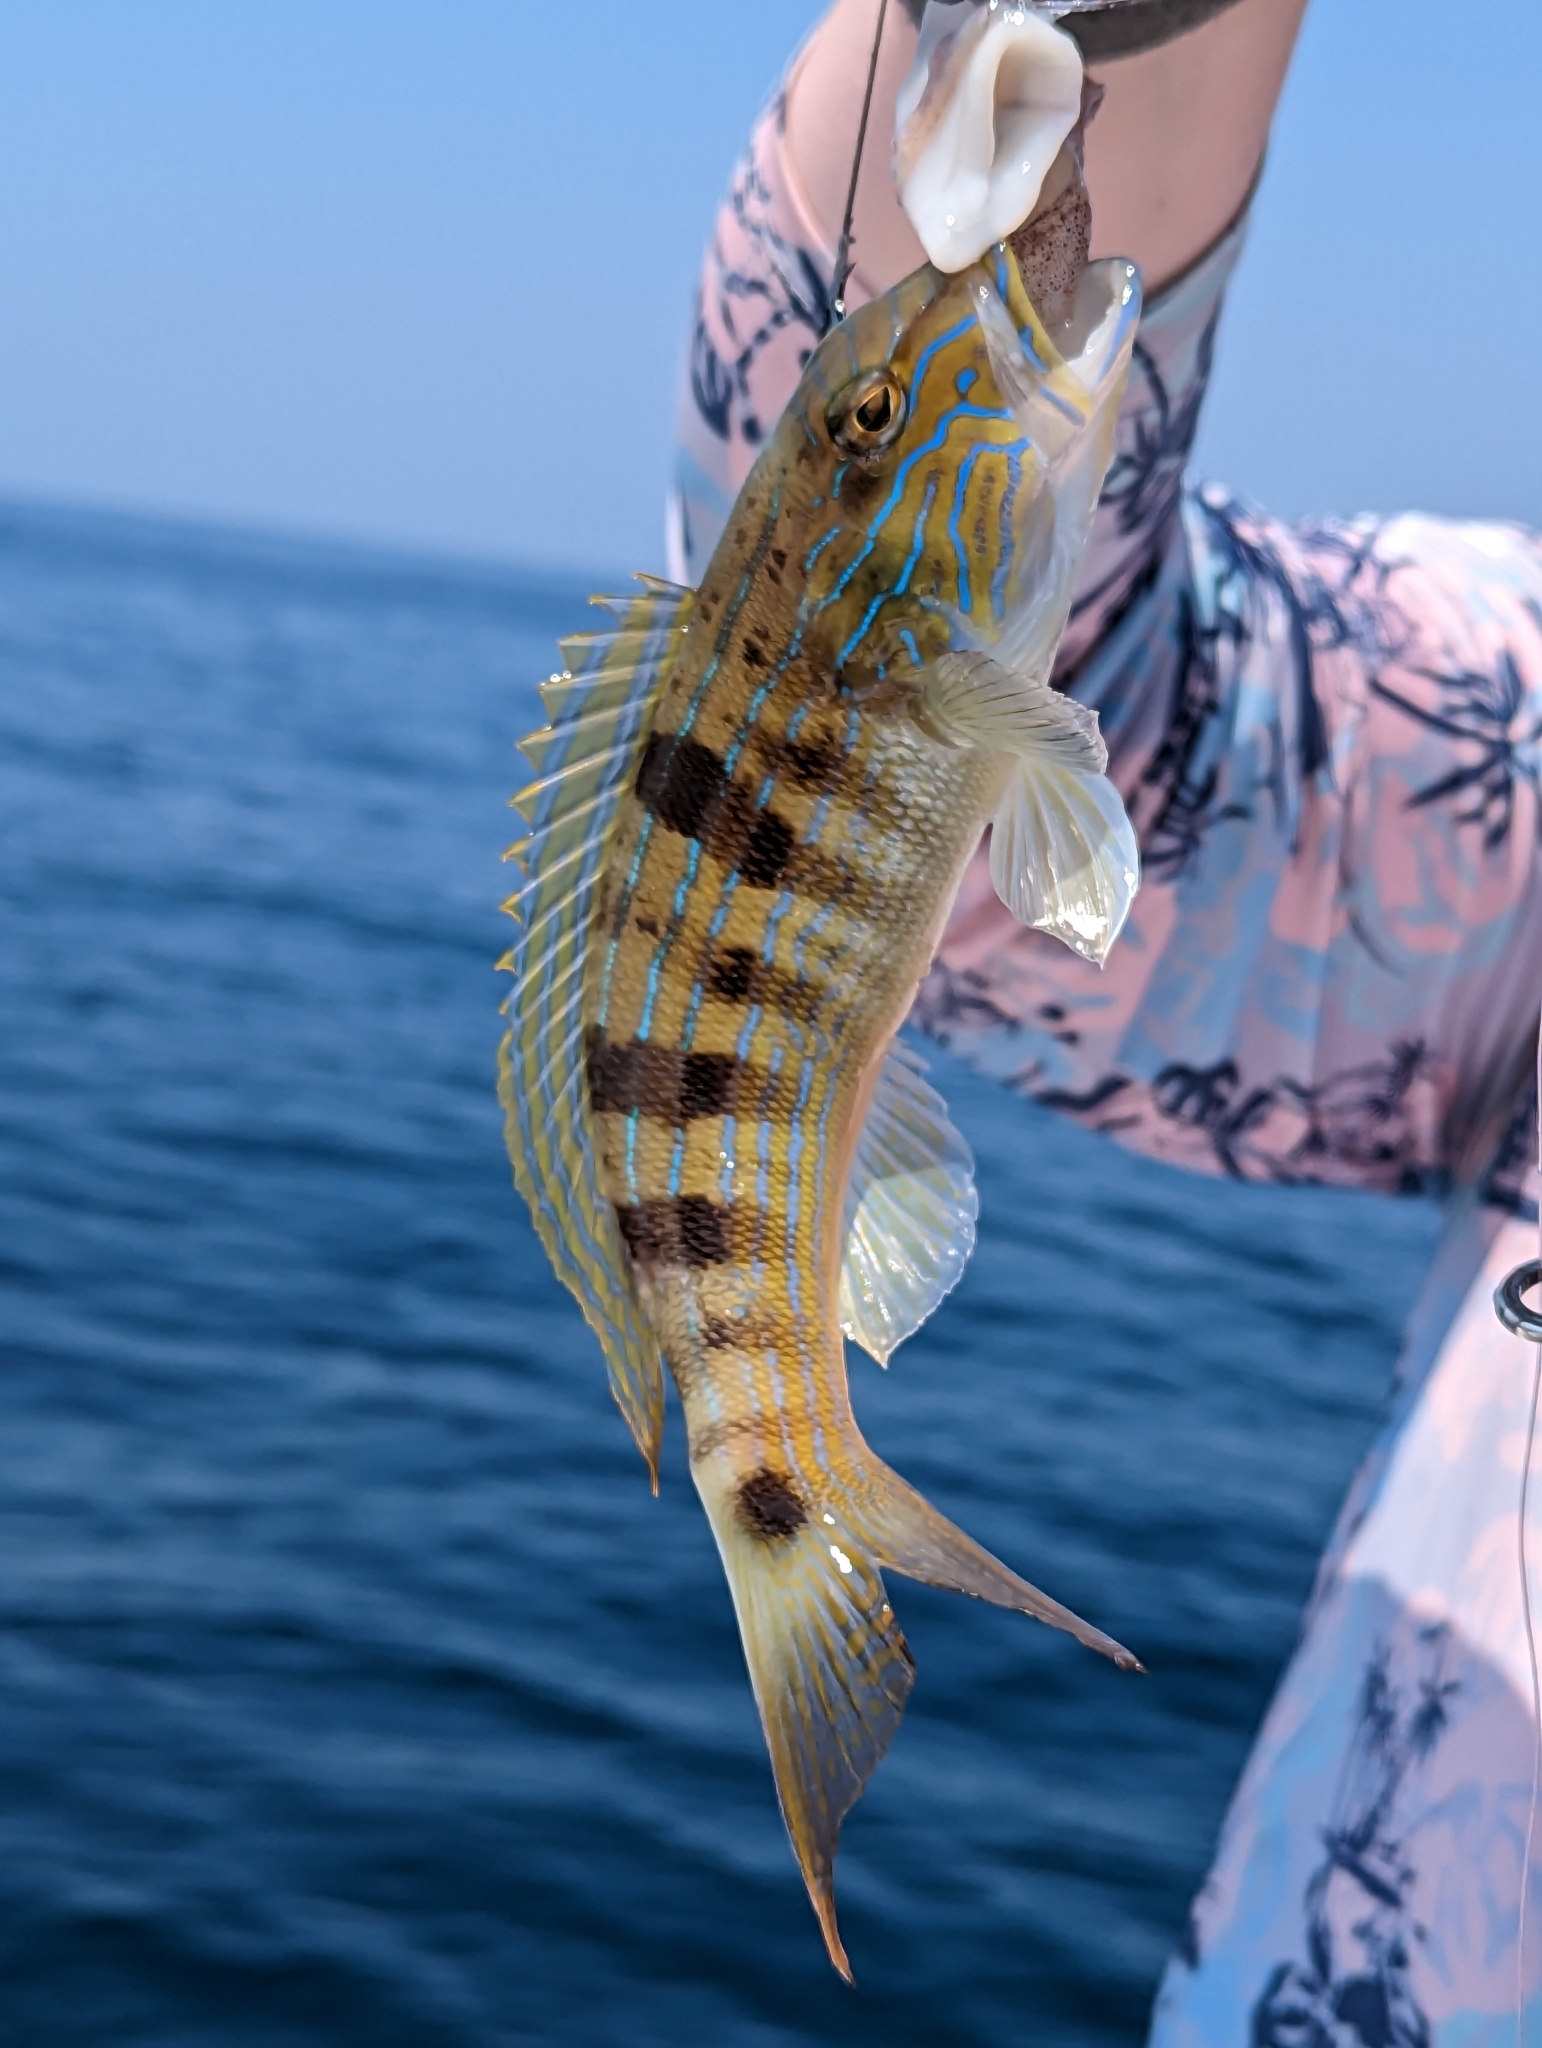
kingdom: Animalia
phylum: Chordata
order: Perciformes
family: Serranidae
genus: Diplectrum
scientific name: Diplectrum formosum
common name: Sand perch
